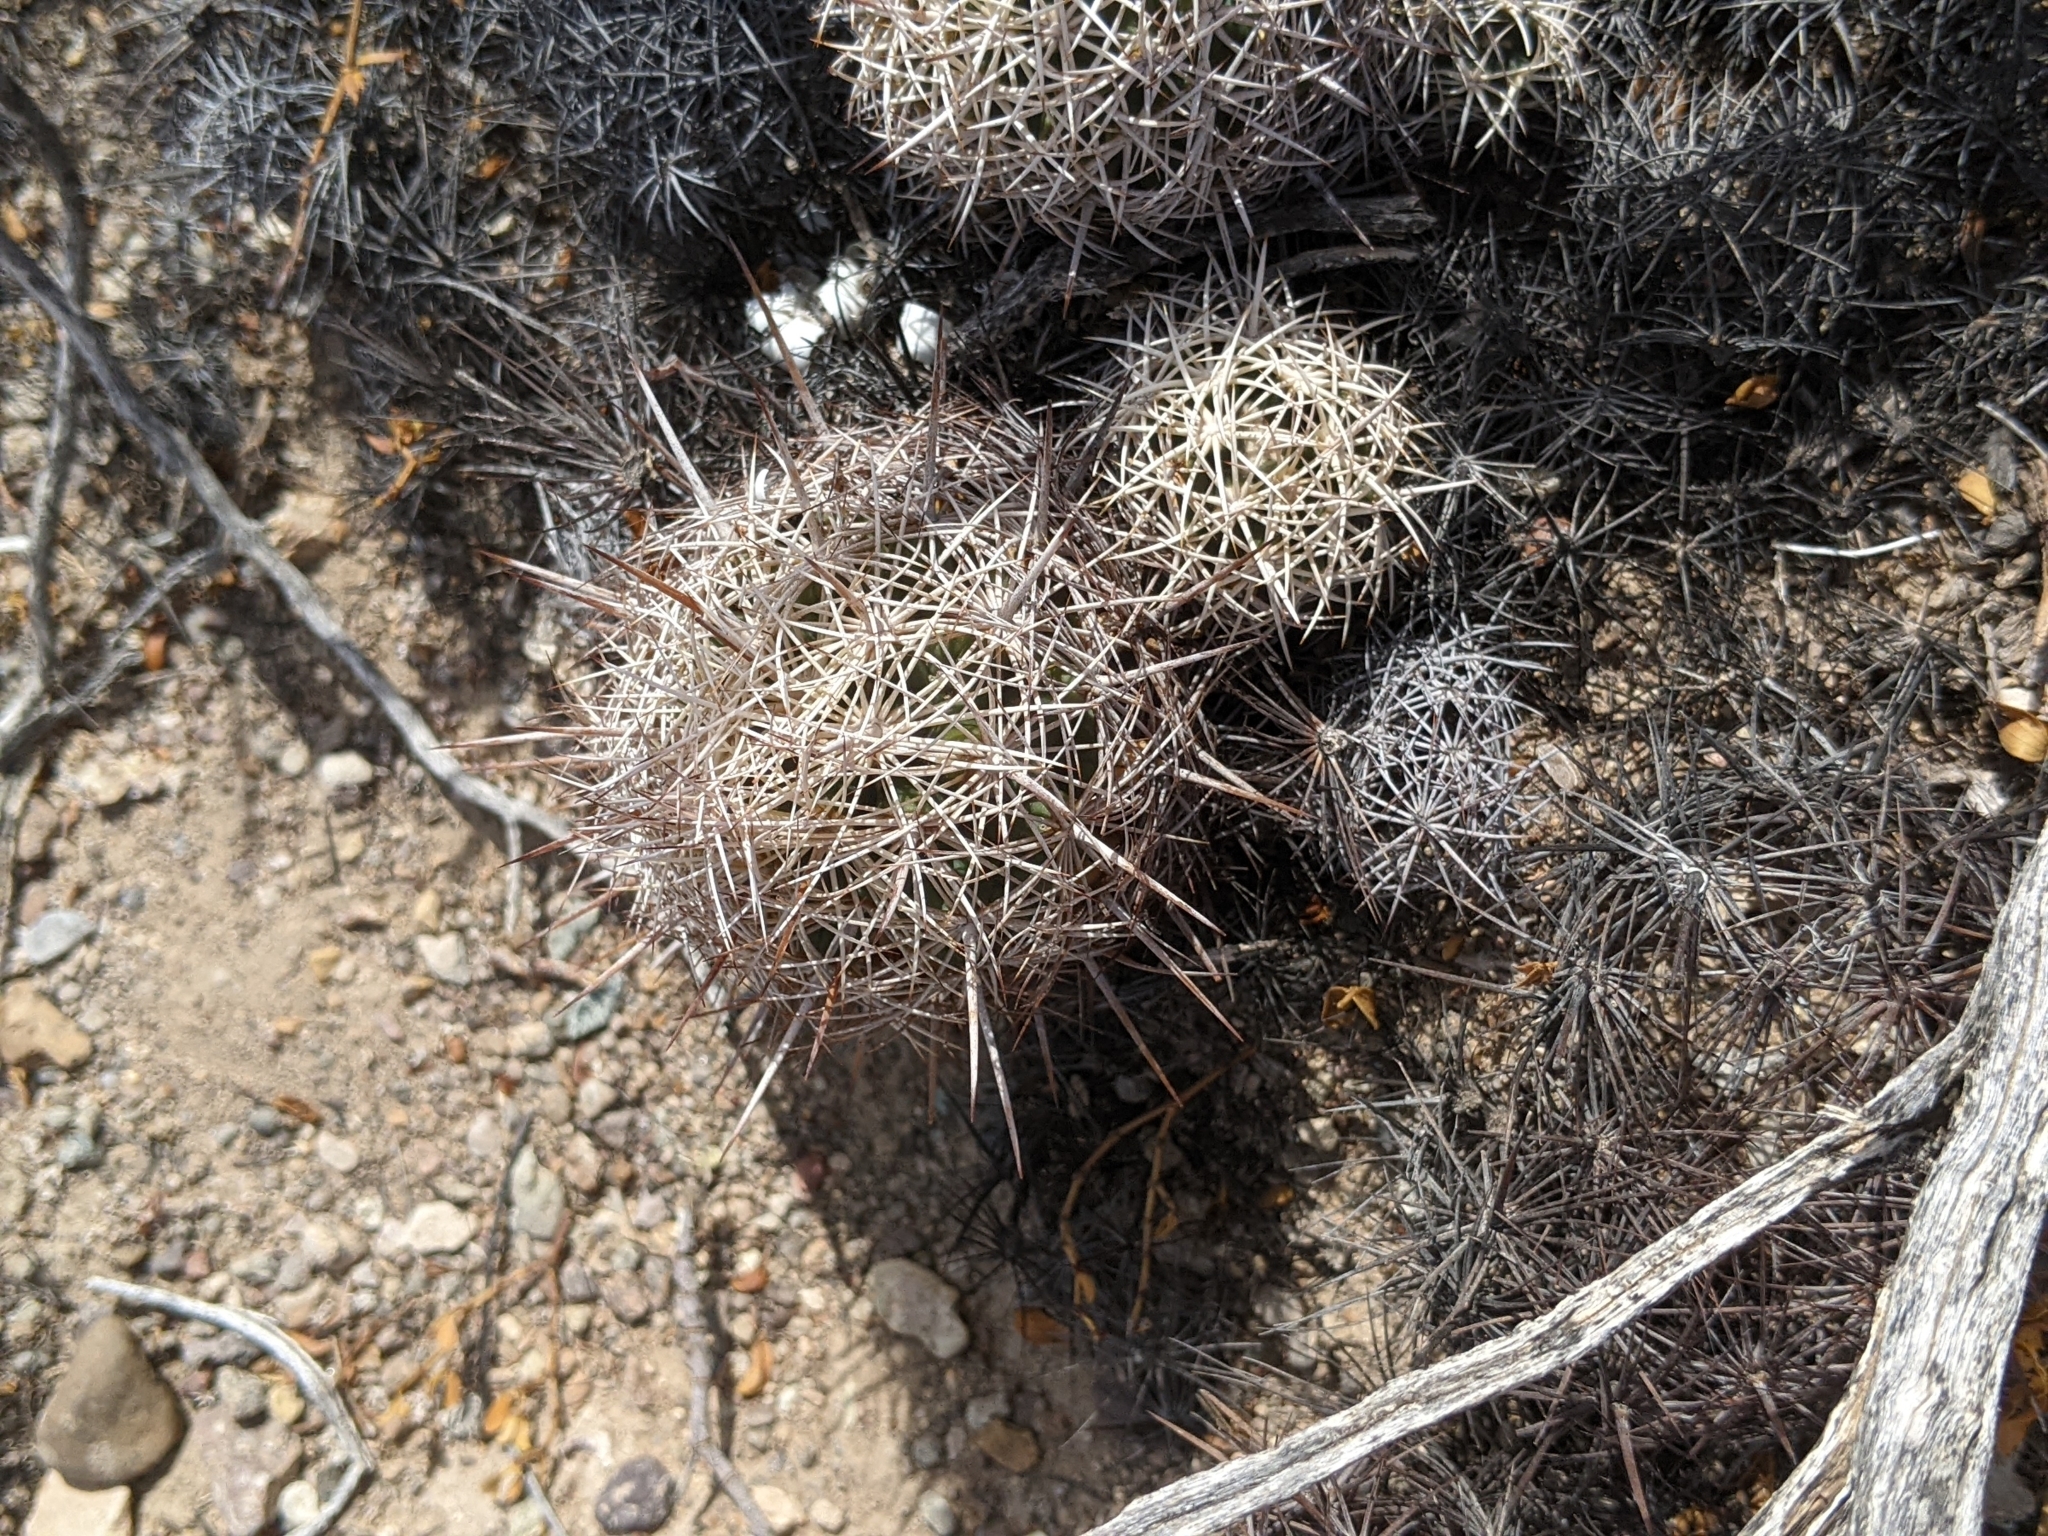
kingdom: Plantae
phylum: Tracheophyta
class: Magnoliopsida
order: Caryophyllales
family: Cactaceae
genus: Coryphantha
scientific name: Coryphantha echinus
